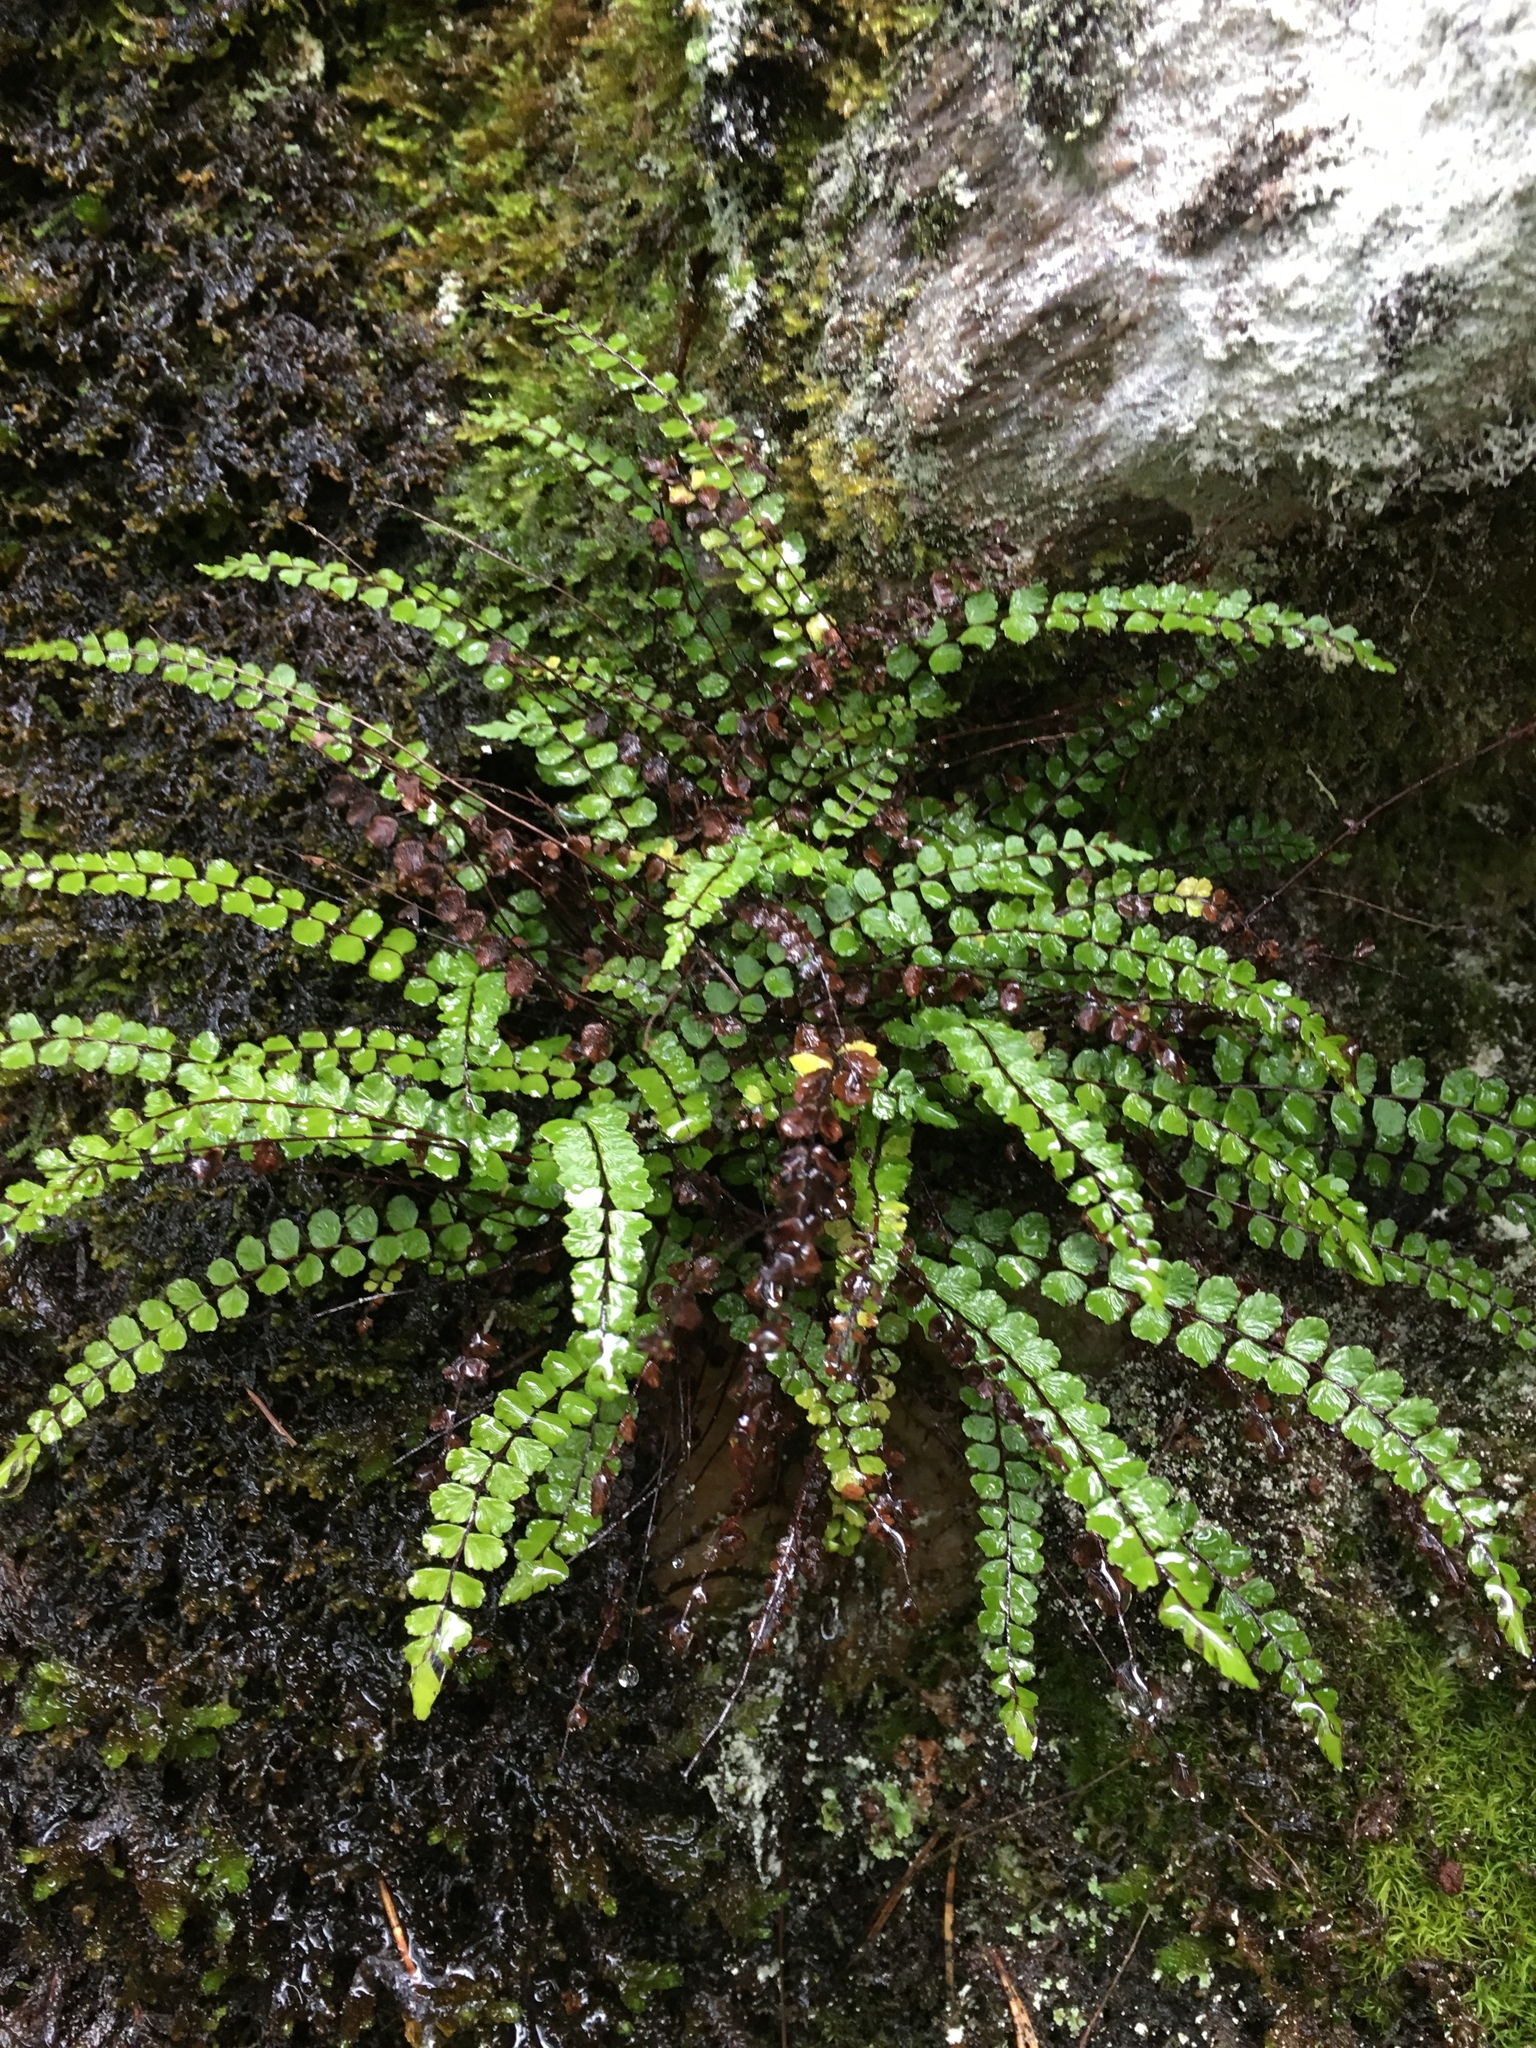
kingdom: Plantae
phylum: Tracheophyta
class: Polypodiopsida
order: Polypodiales
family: Aspleniaceae
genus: Asplenium
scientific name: Asplenium trichomanes
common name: Maidenhair spleenwort
